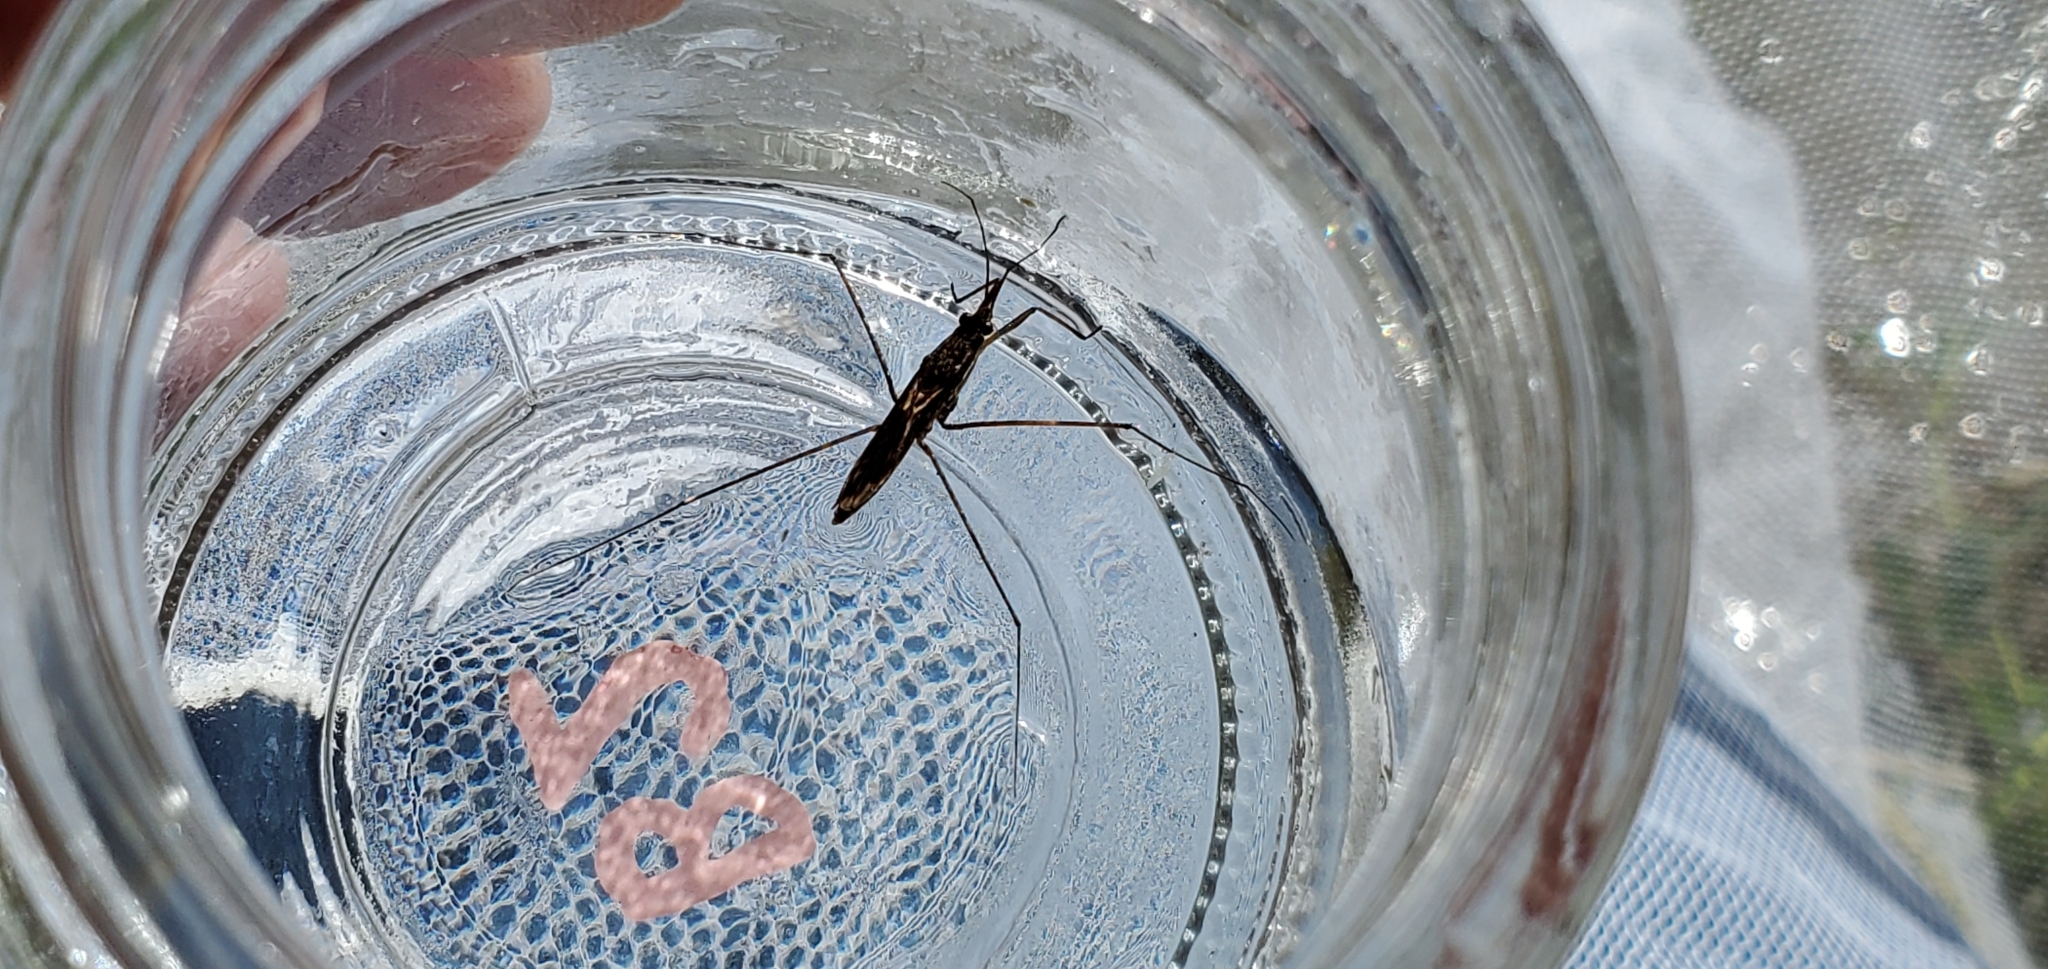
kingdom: Animalia
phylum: Arthropoda
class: Insecta
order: Hemiptera
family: Gerridae
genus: Limnoporus
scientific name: Limnoporus
